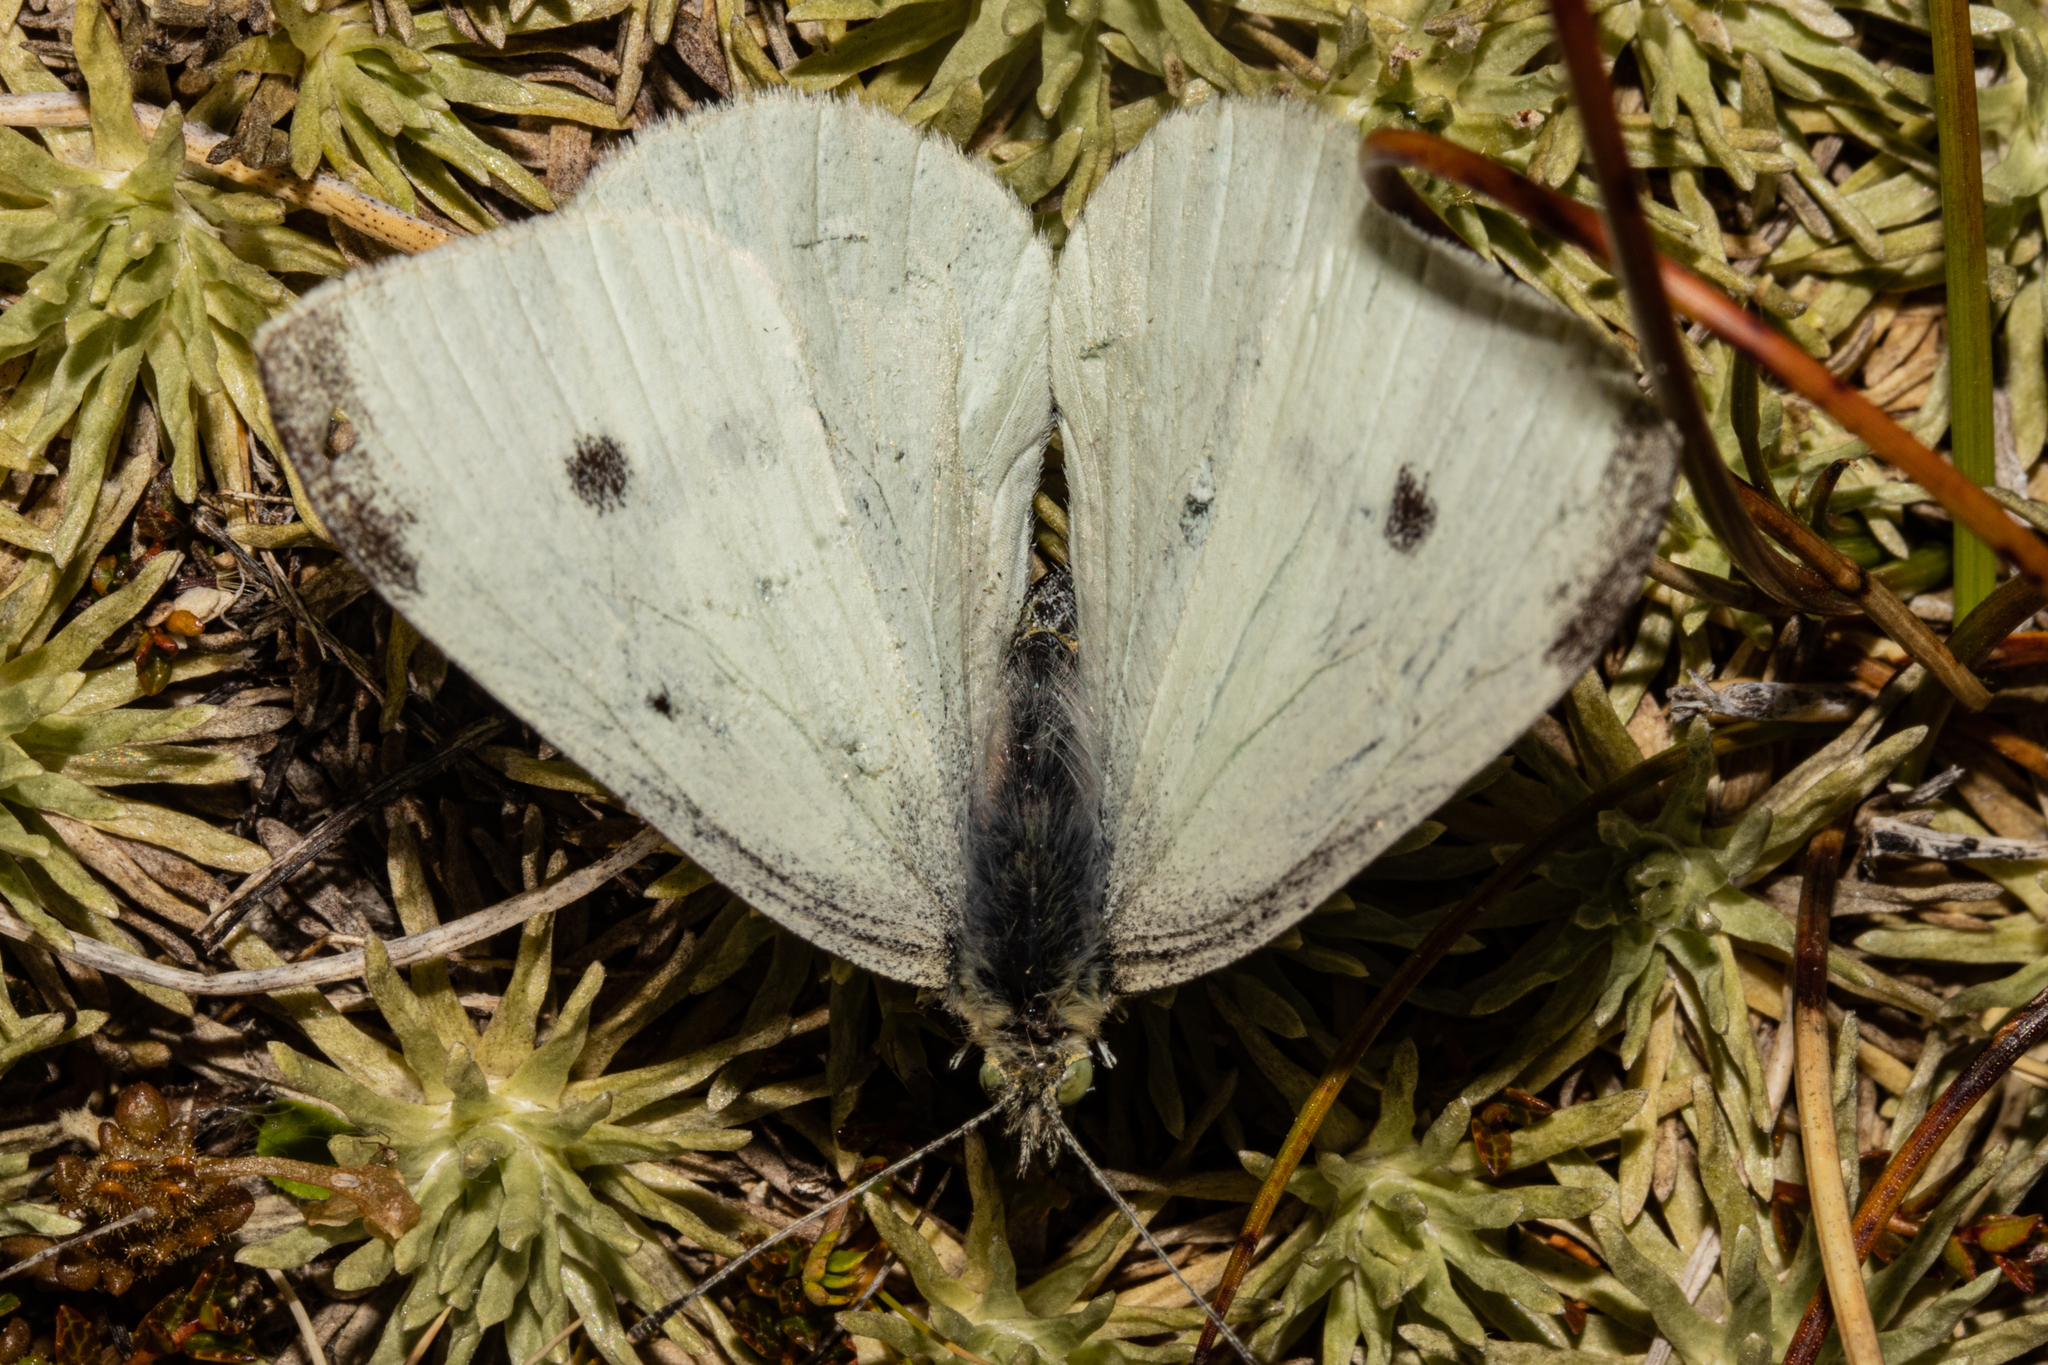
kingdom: Animalia
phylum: Arthropoda
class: Insecta
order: Lepidoptera
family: Pieridae
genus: Pieris
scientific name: Pieris rapae
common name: Small white
